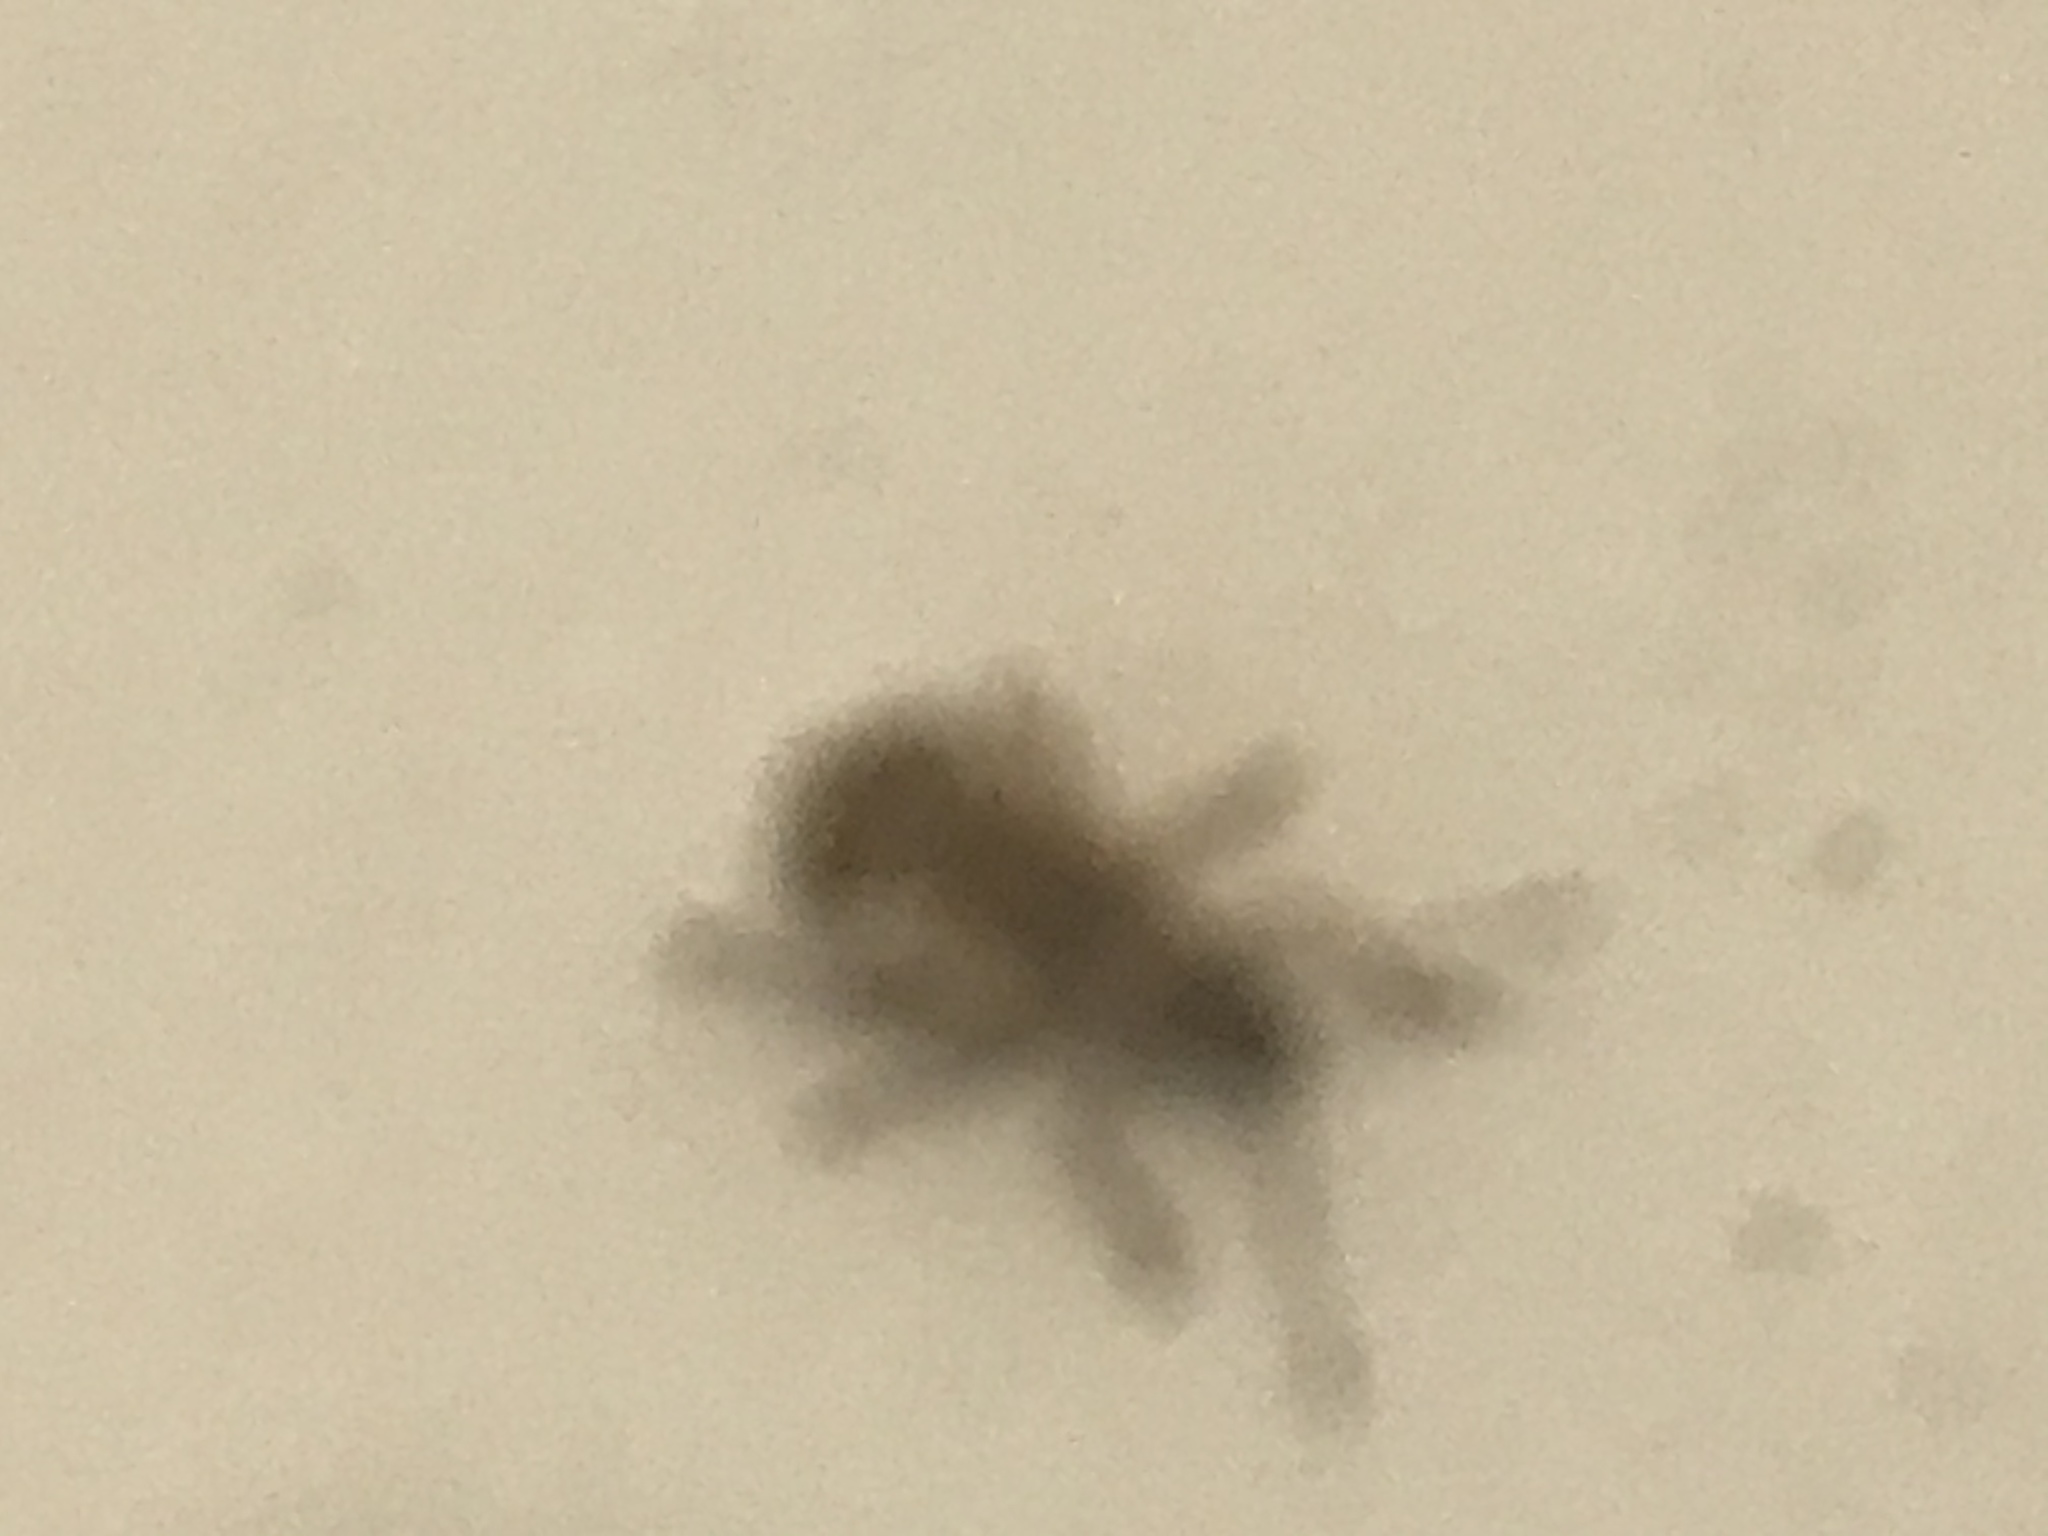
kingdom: Animalia
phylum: Arthropoda
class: Insecta
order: Coleoptera
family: Curculionidae
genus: Pseudoedophrys
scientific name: Pseudoedophrys hilleri
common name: Weevil
